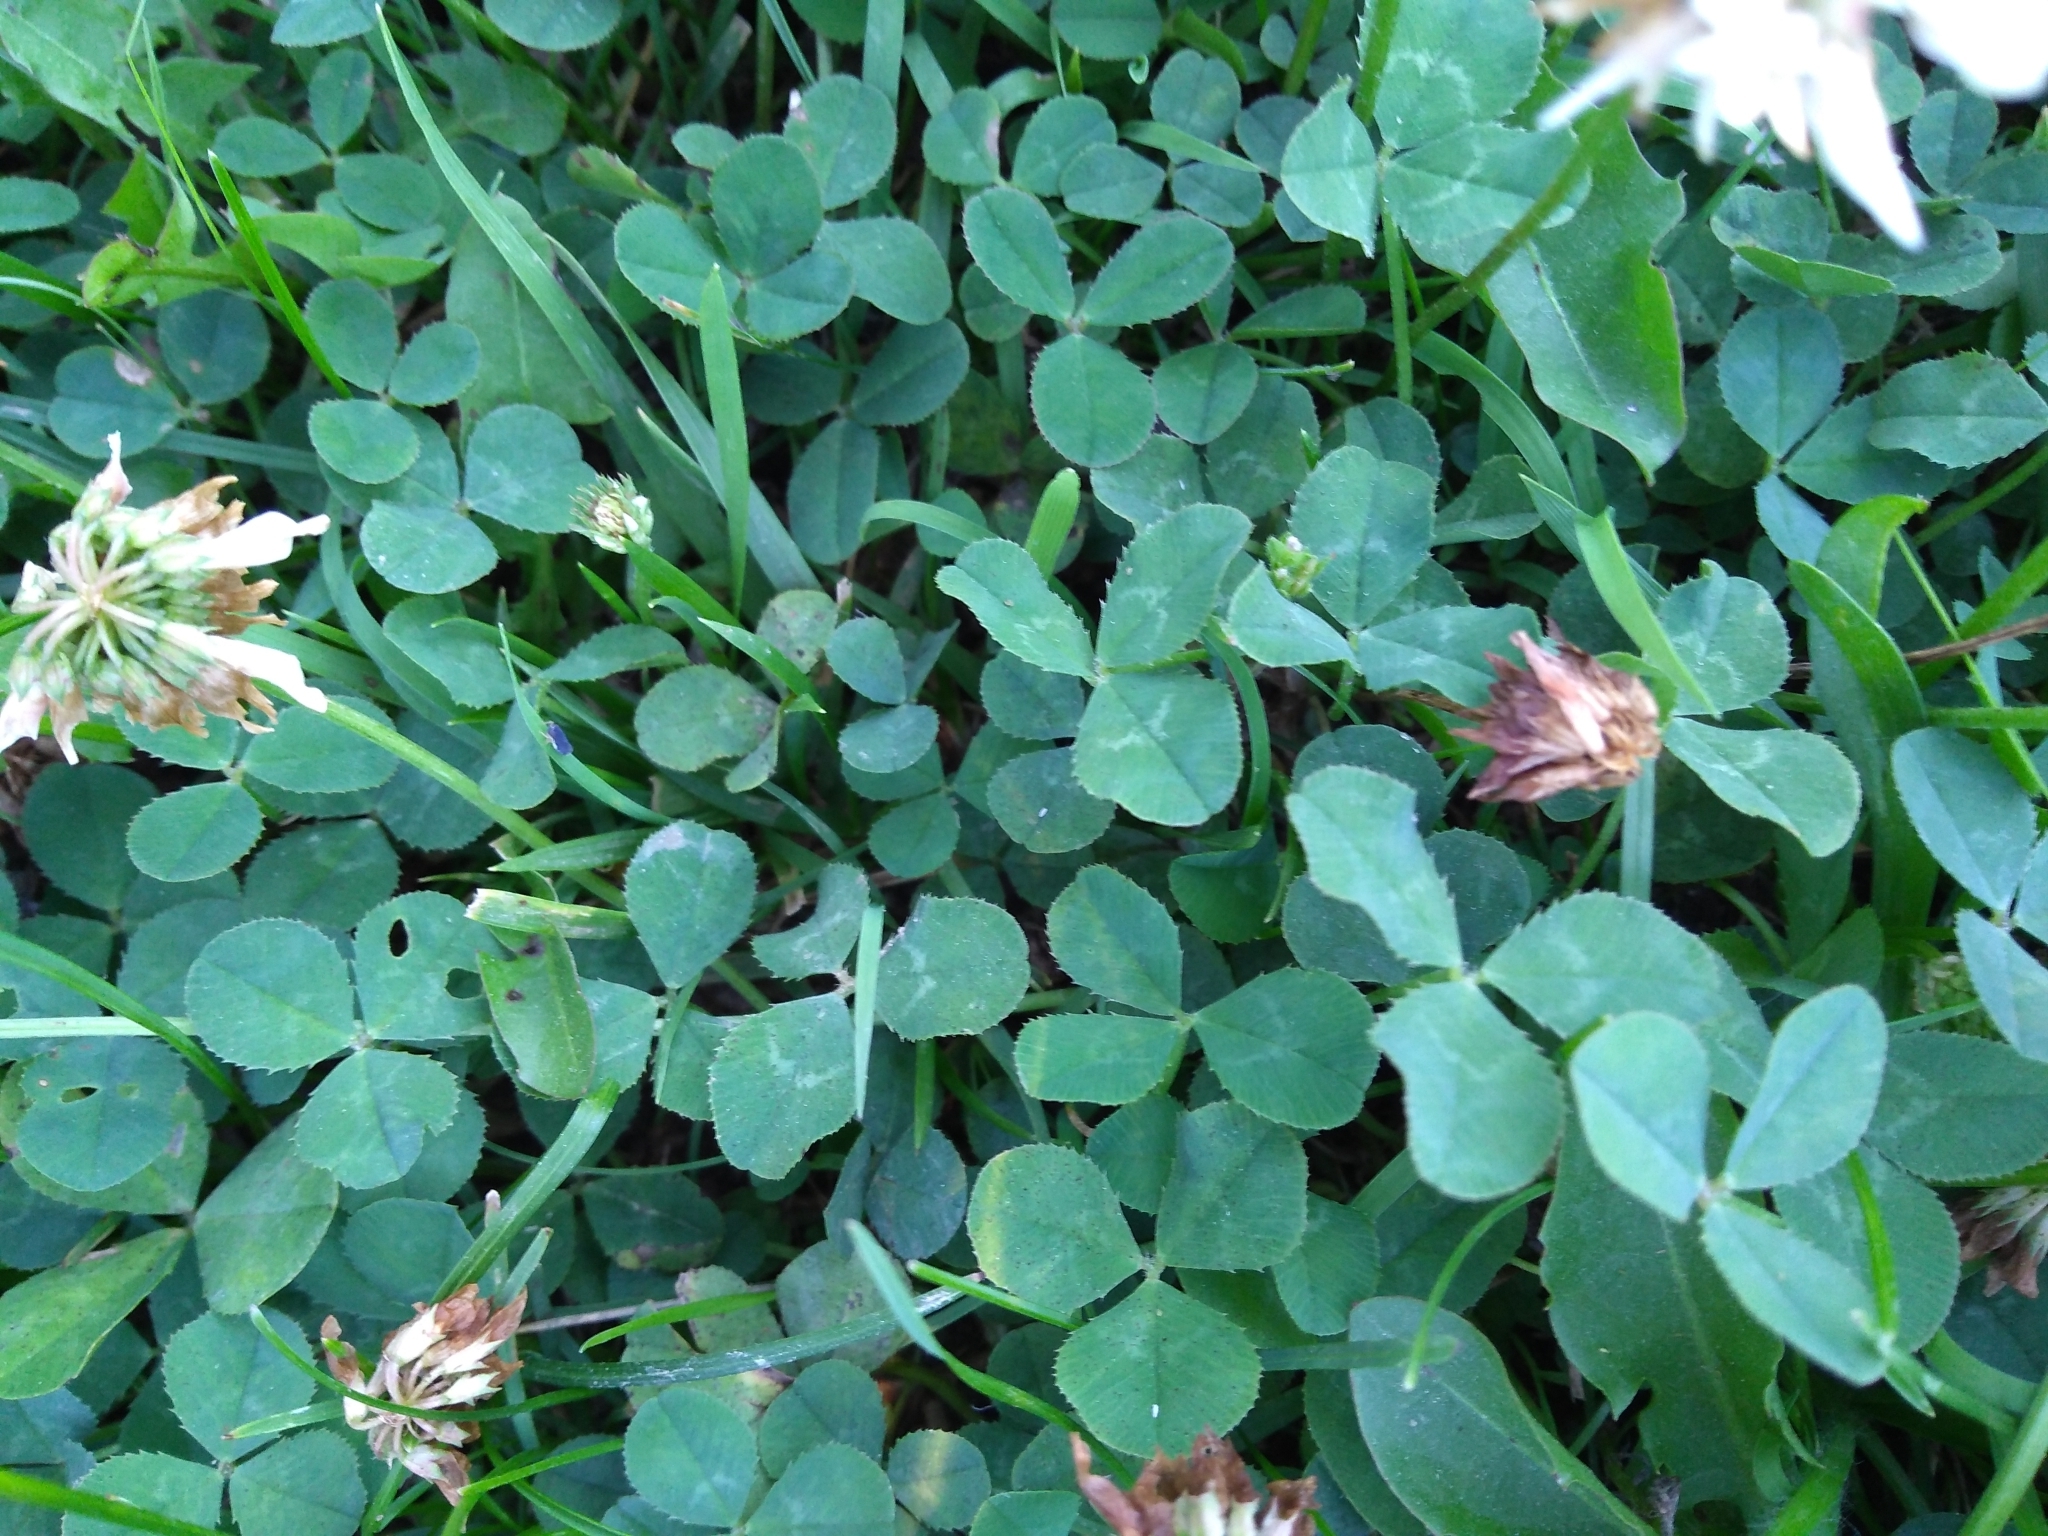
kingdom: Plantae
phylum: Tracheophyta
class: Magnoliopsida
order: Fabales
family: Fabaceae
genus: Trifolium
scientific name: Trifolium repens
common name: White clover
